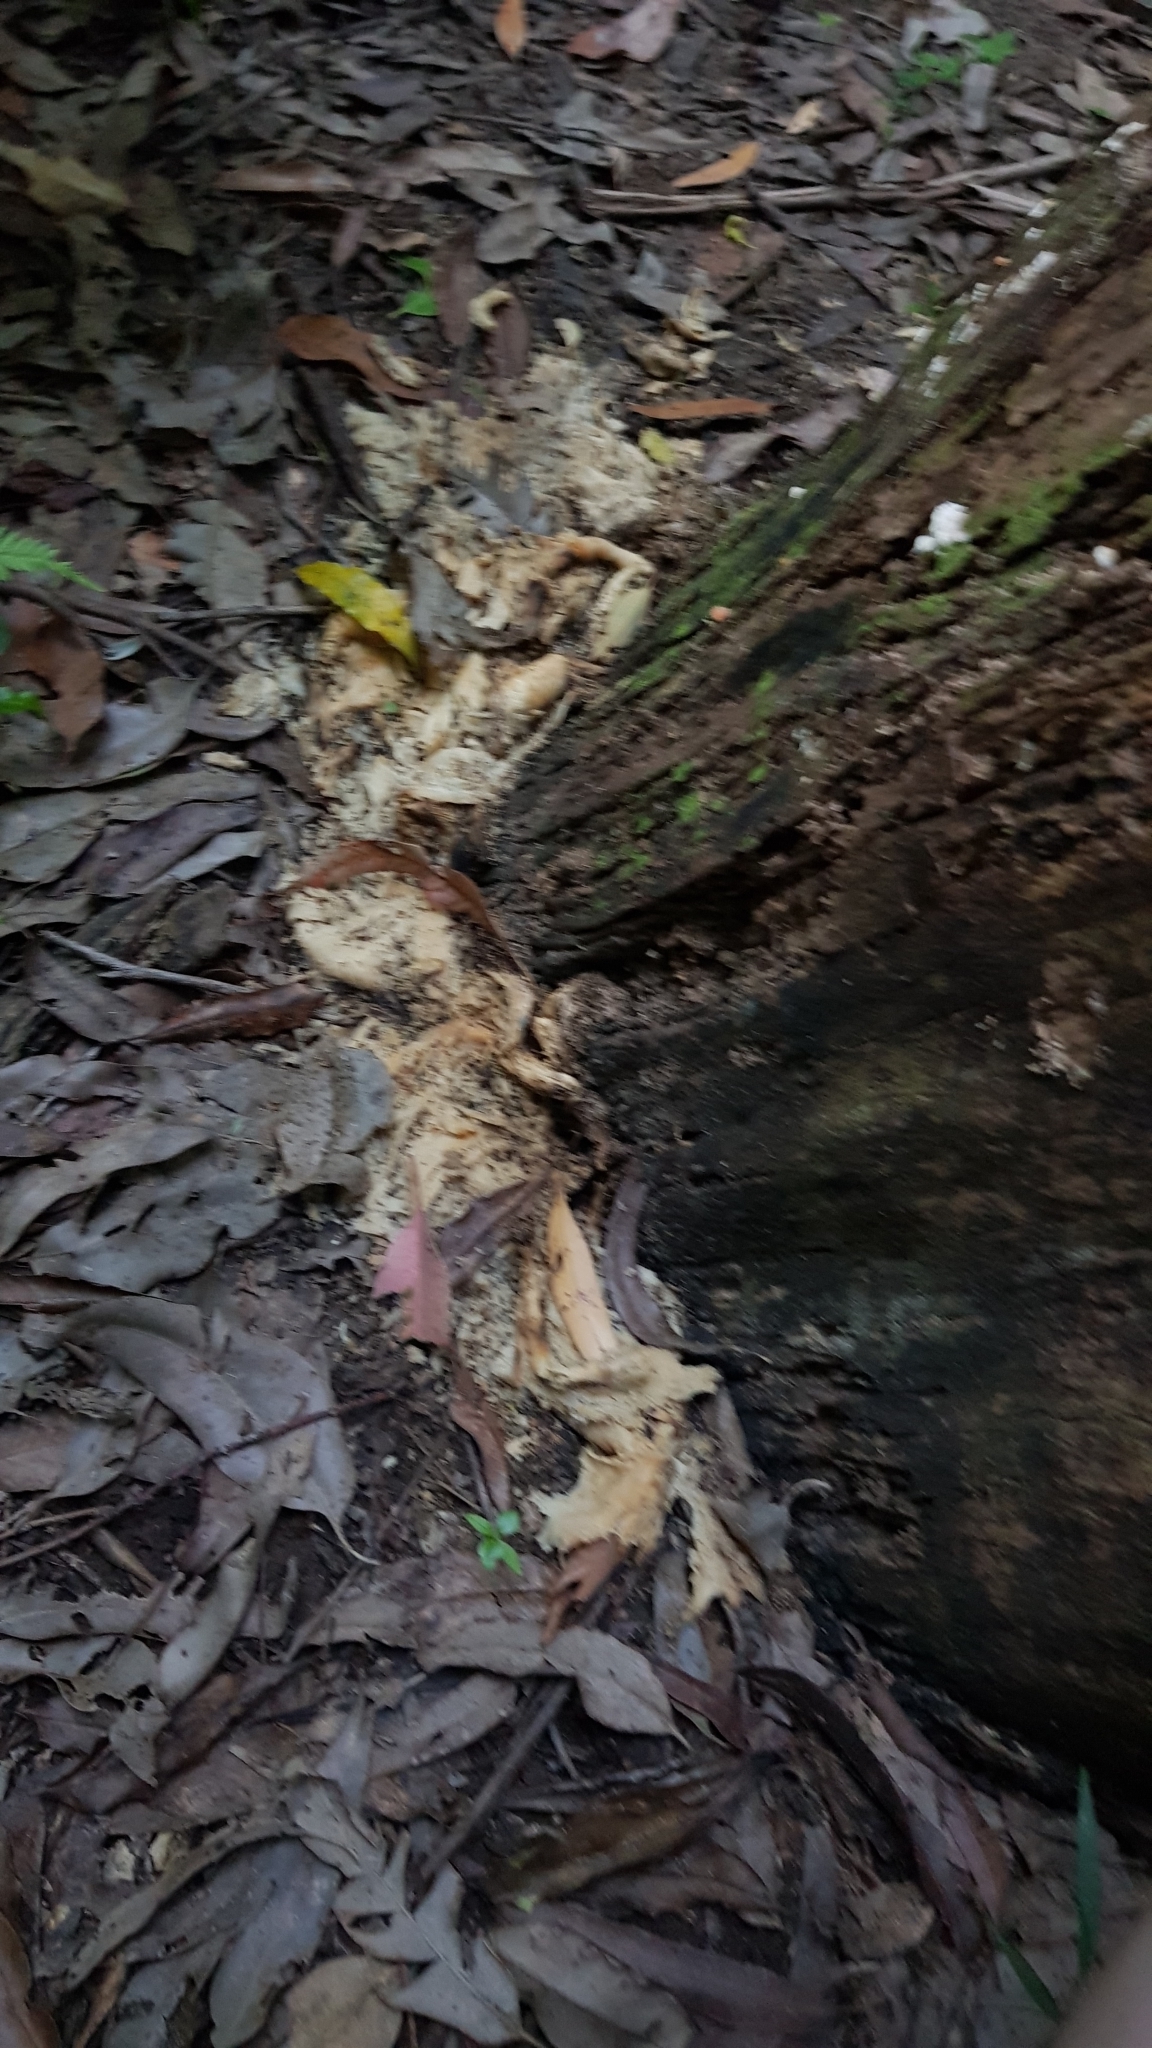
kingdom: Fungi
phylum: Basidiomycota
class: Agaricomycetes
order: Agaricales
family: Omphalotaceae
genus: Omphalotus
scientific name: Omphalotus nidiformis
